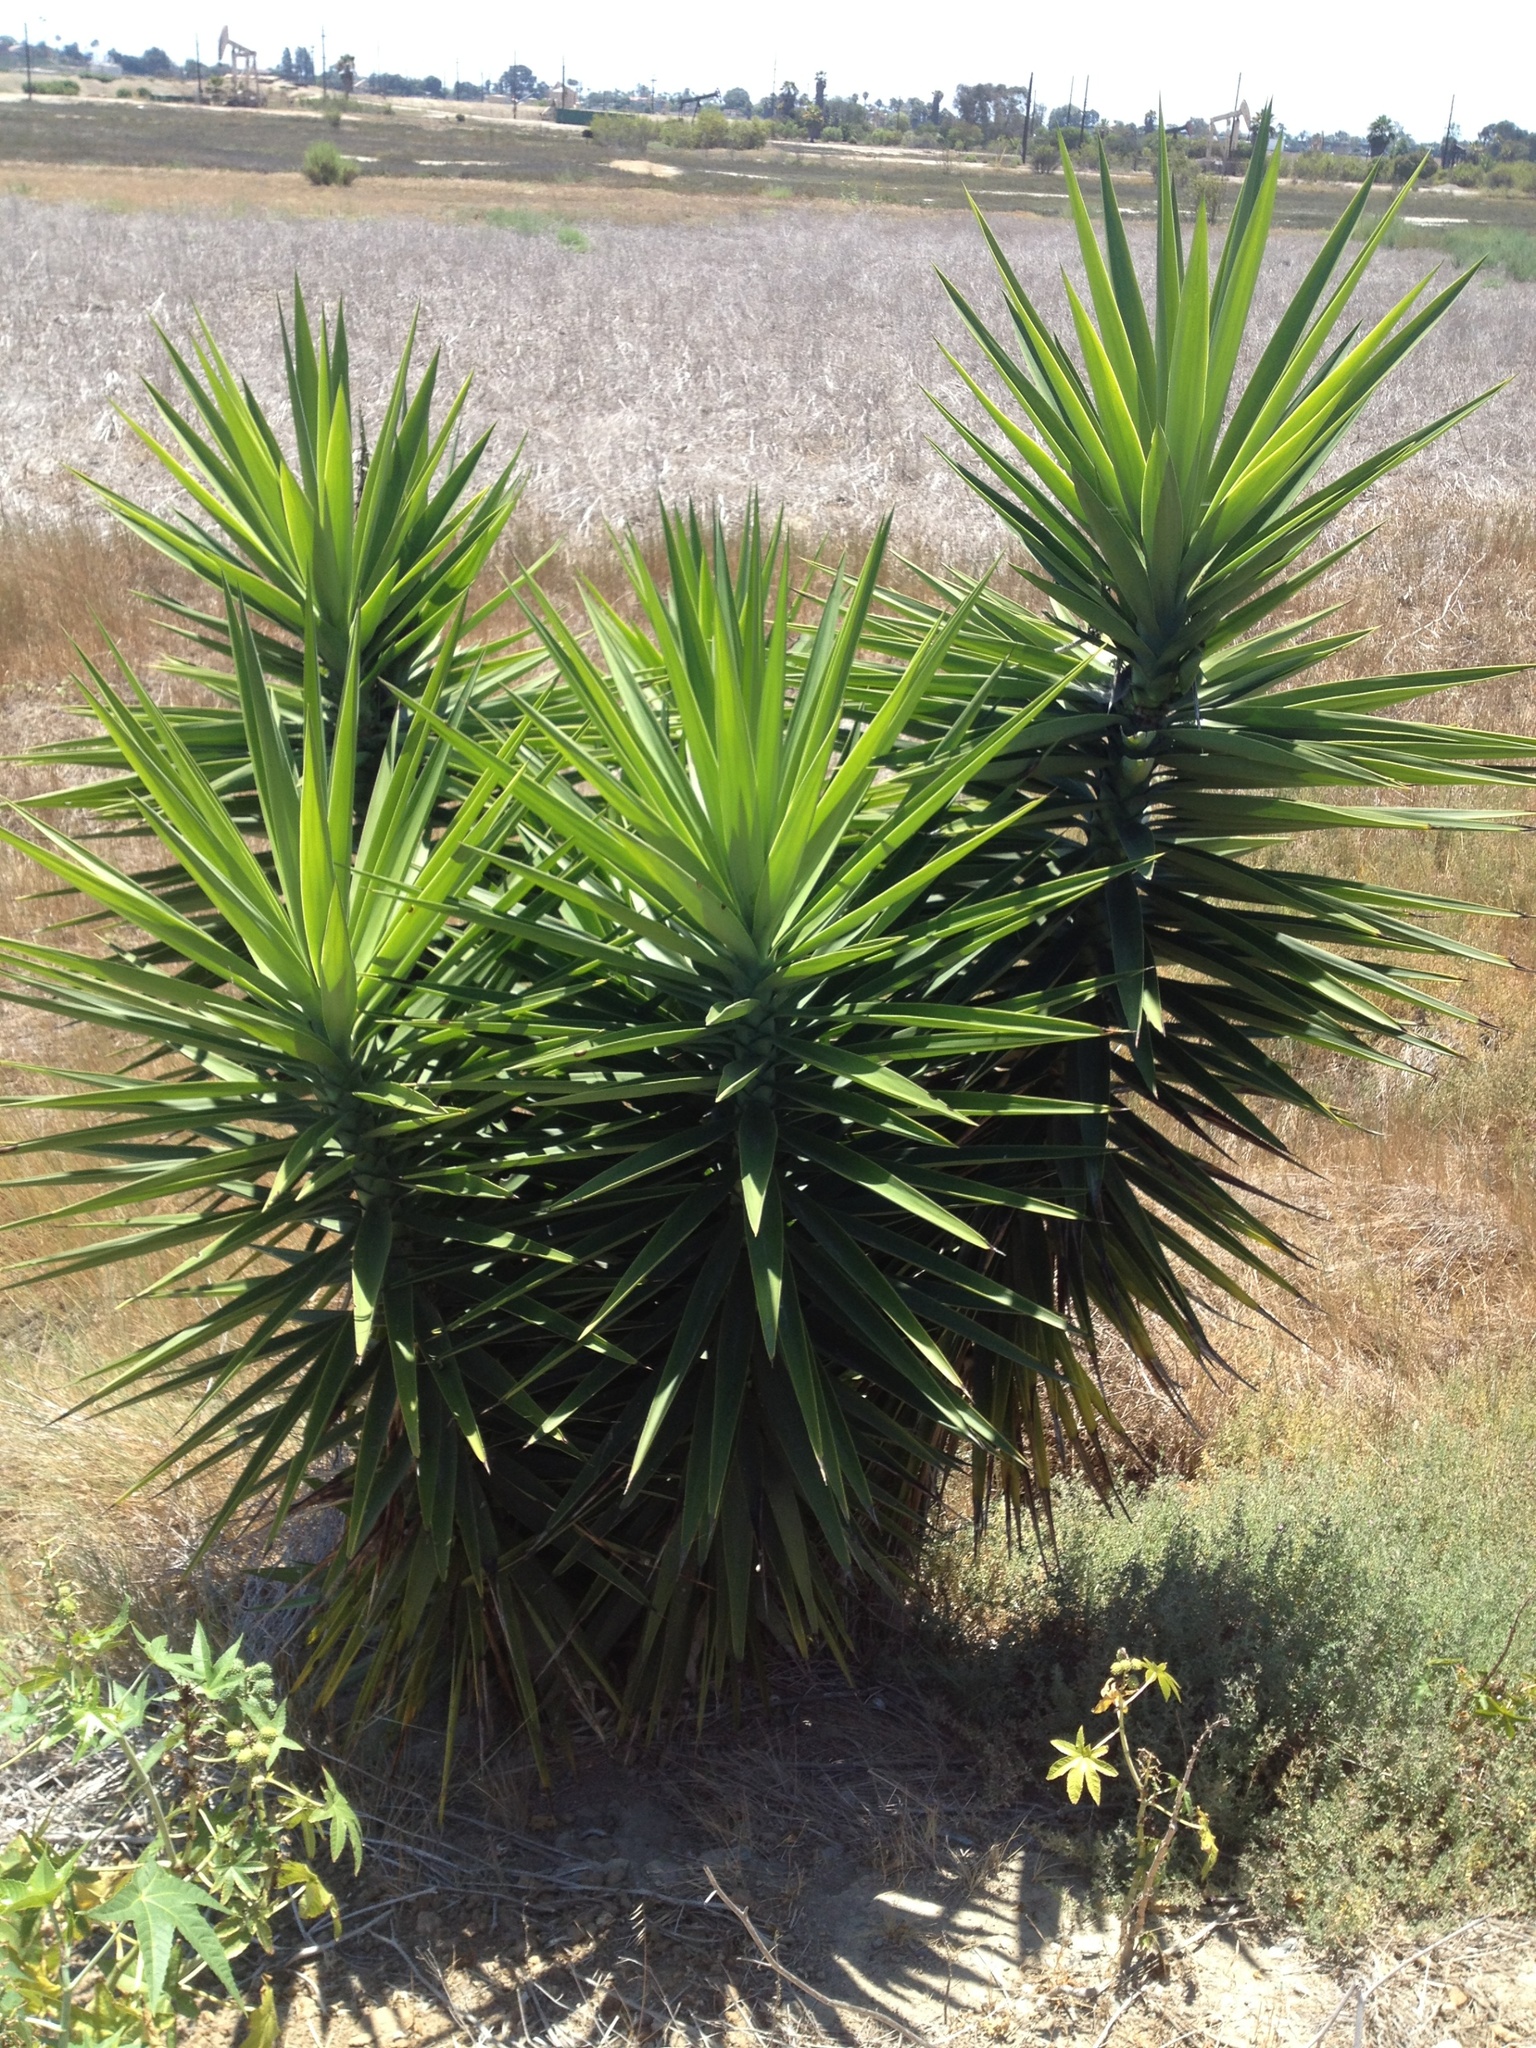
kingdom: Plantae
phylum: Tracheophyta
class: Liliopsida
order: Asparagales
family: Asparagaceae
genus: Yucca
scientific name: Yucca gigantea
